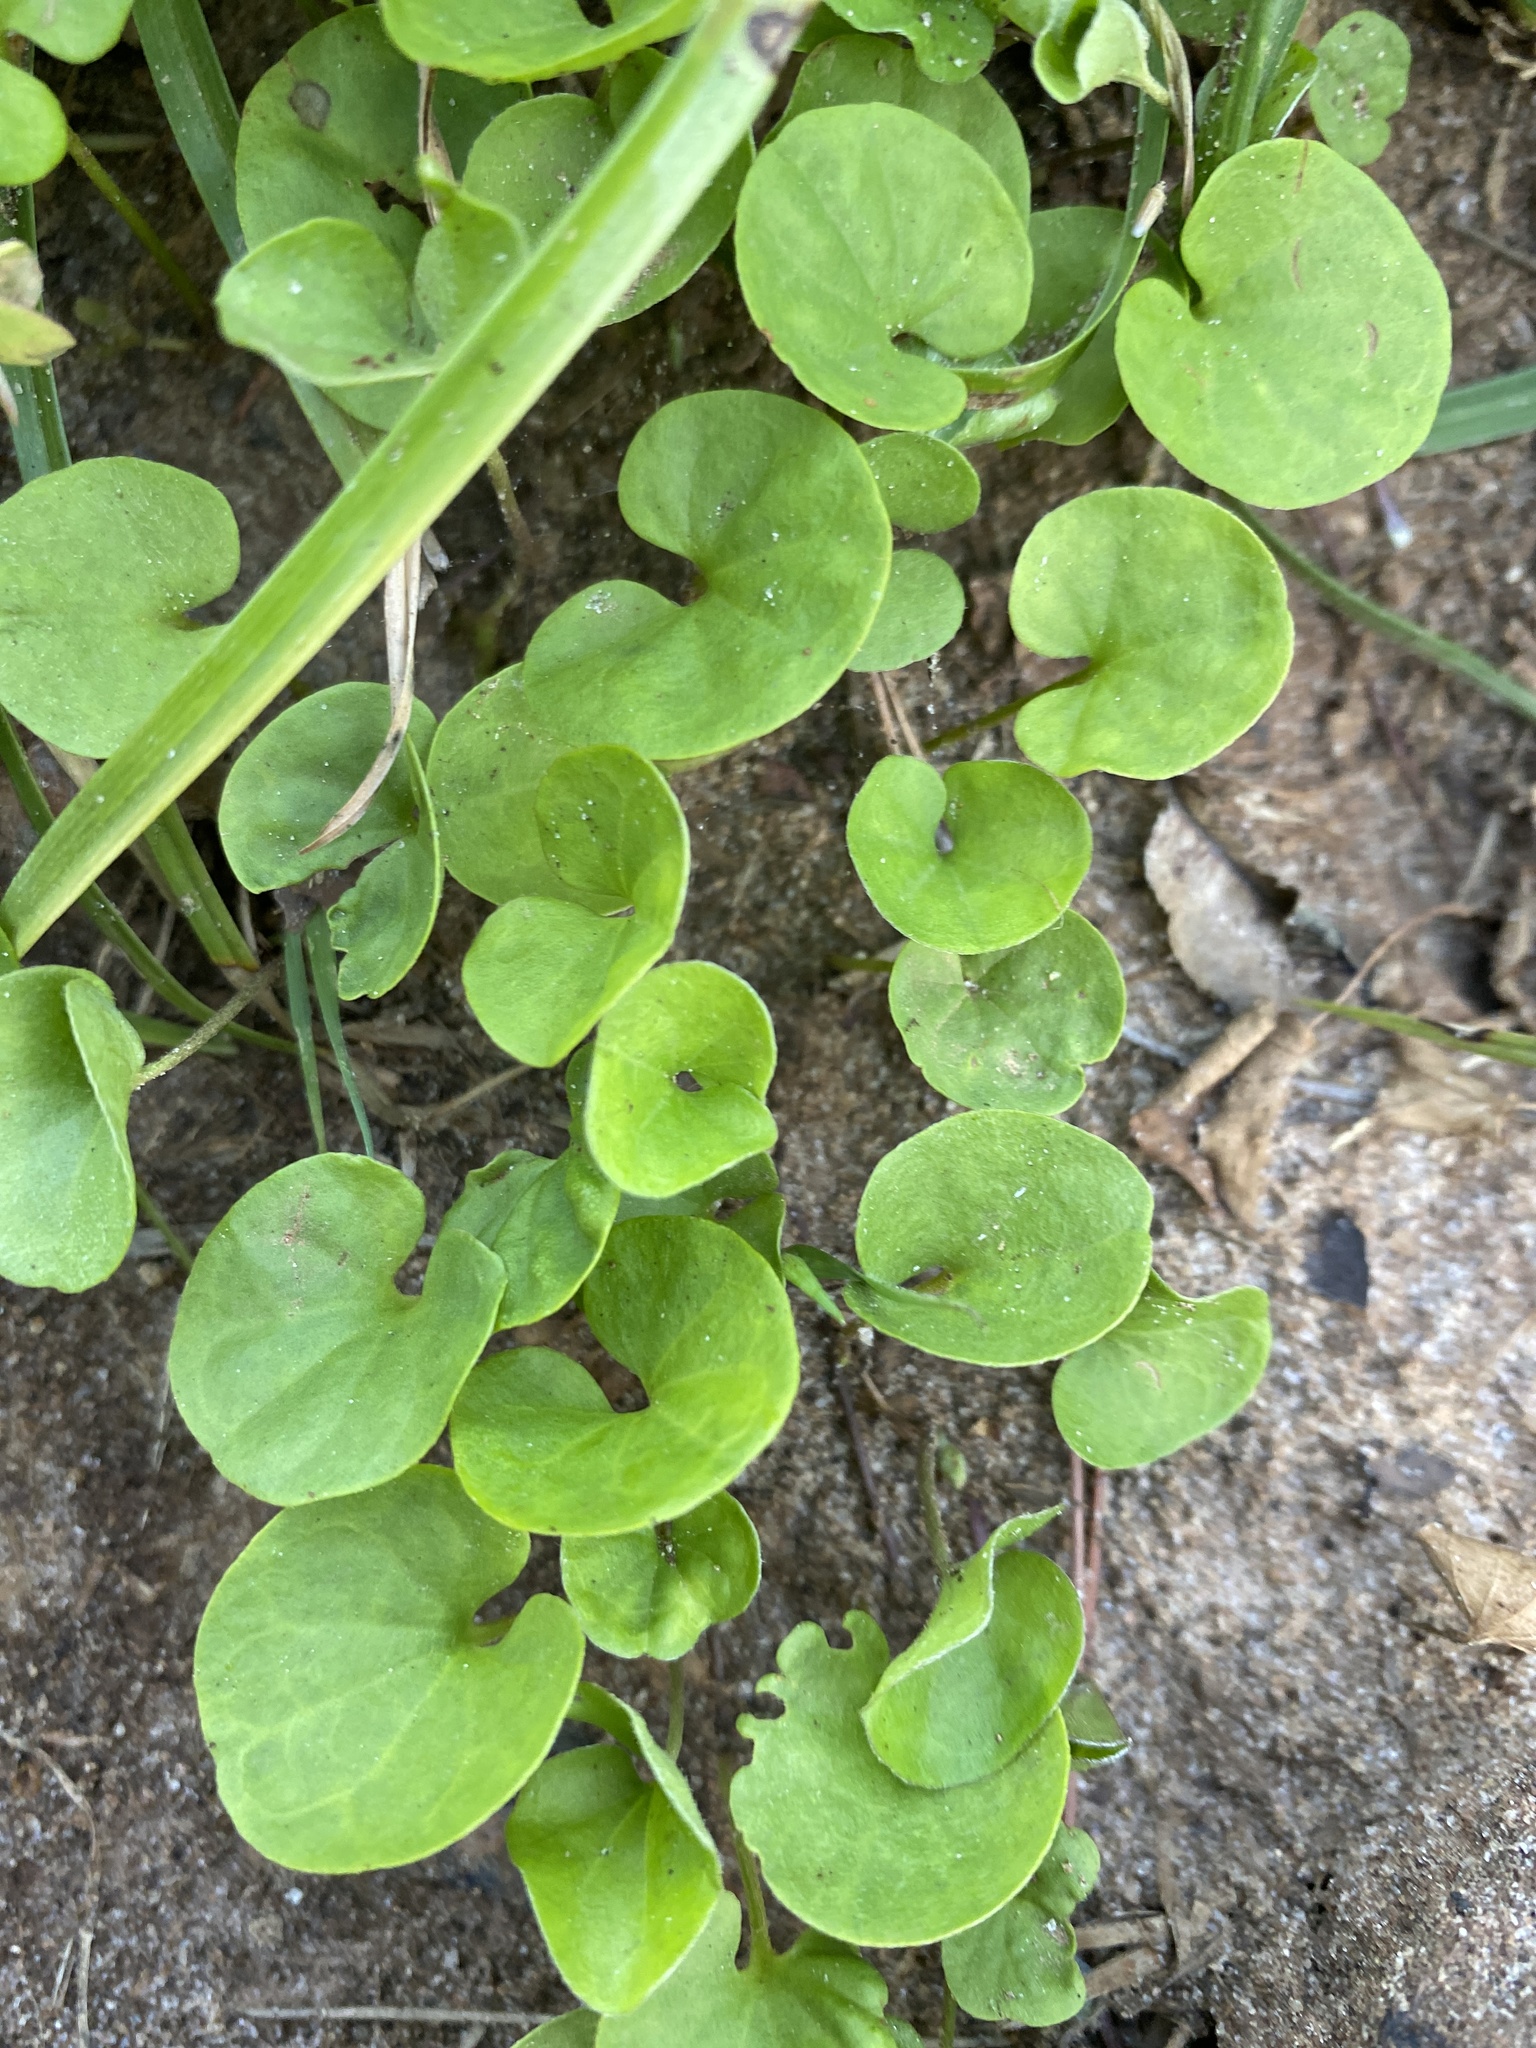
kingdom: Plantae
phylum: Tracheophyta
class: Magnoliopsida
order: Solanales
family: Convolvulaceae
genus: Dichondra
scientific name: Dichondra carolinensis
